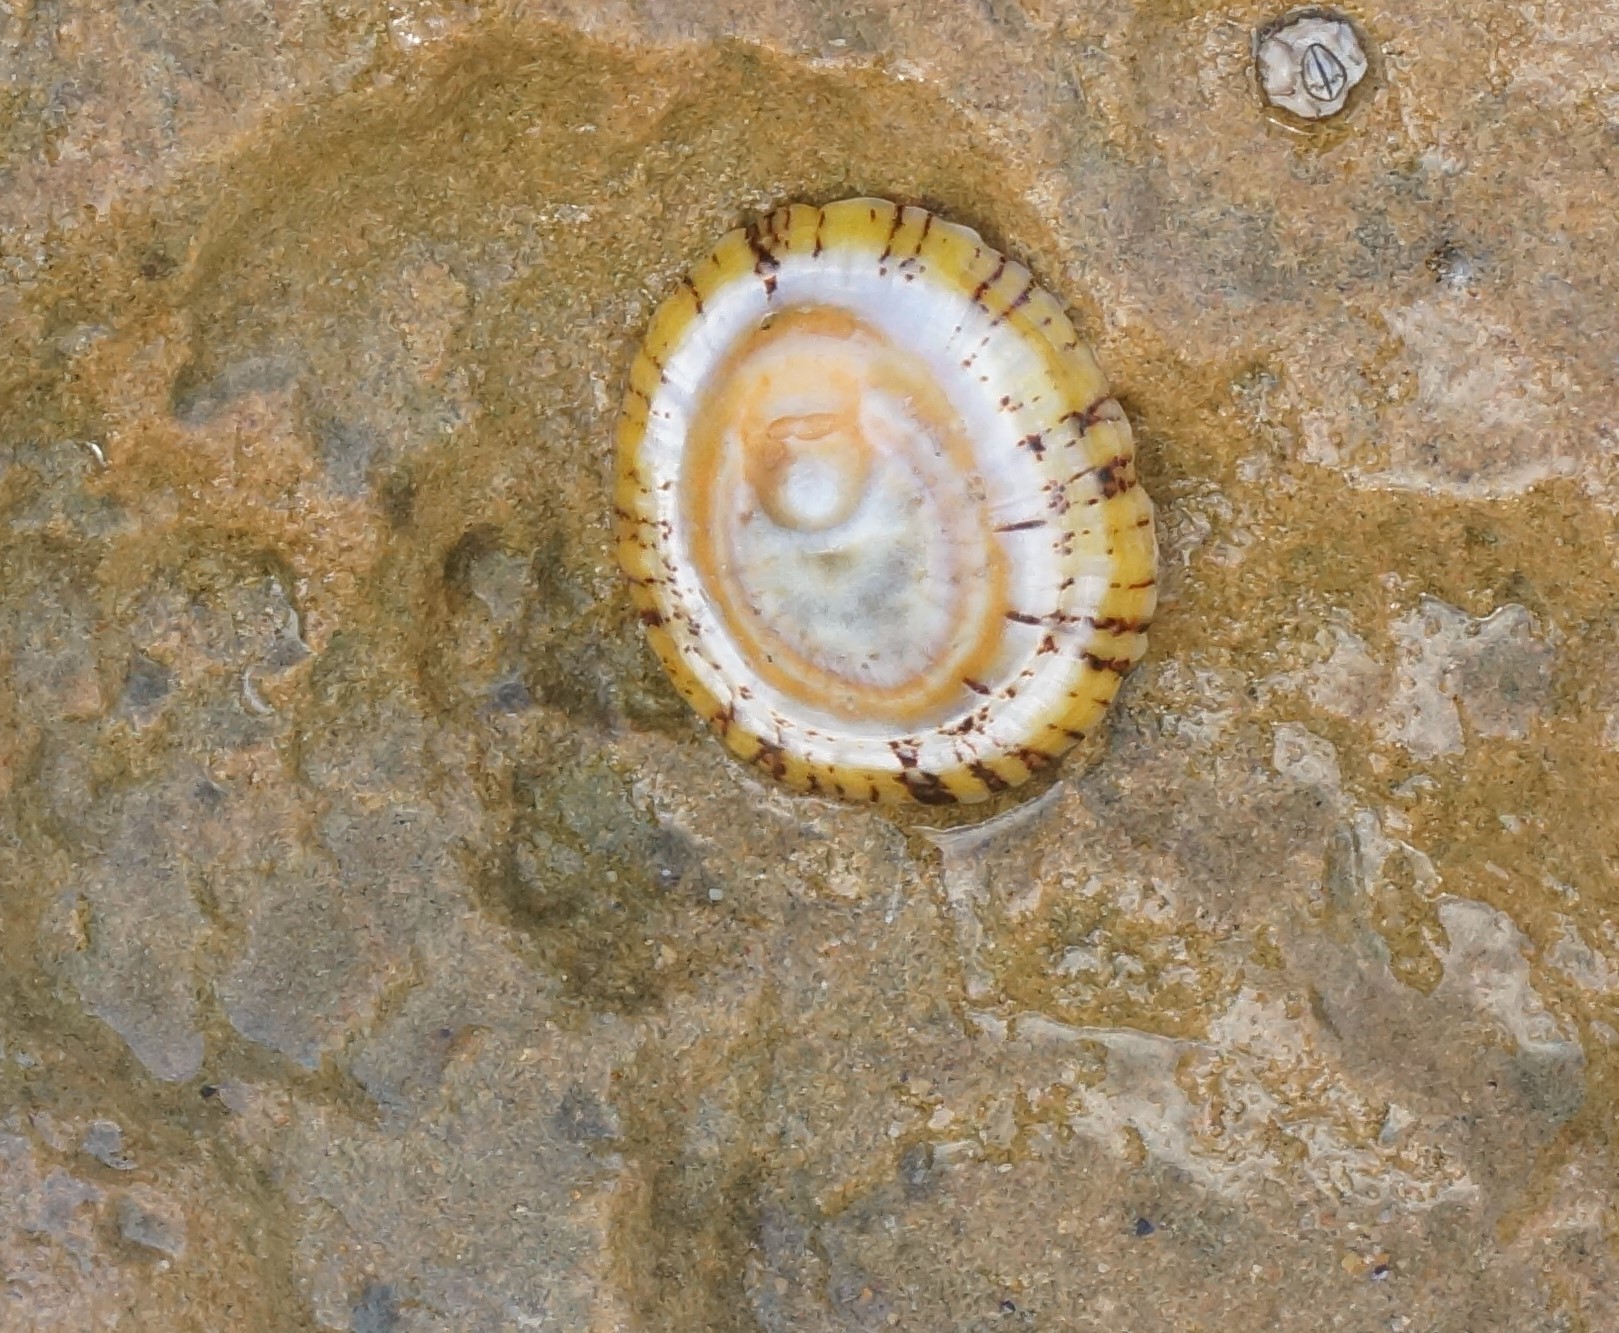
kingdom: Animalia
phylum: Mollusca
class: Gastropoda
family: Nacellidae
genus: Cellana
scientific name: Cellana tramoserica
